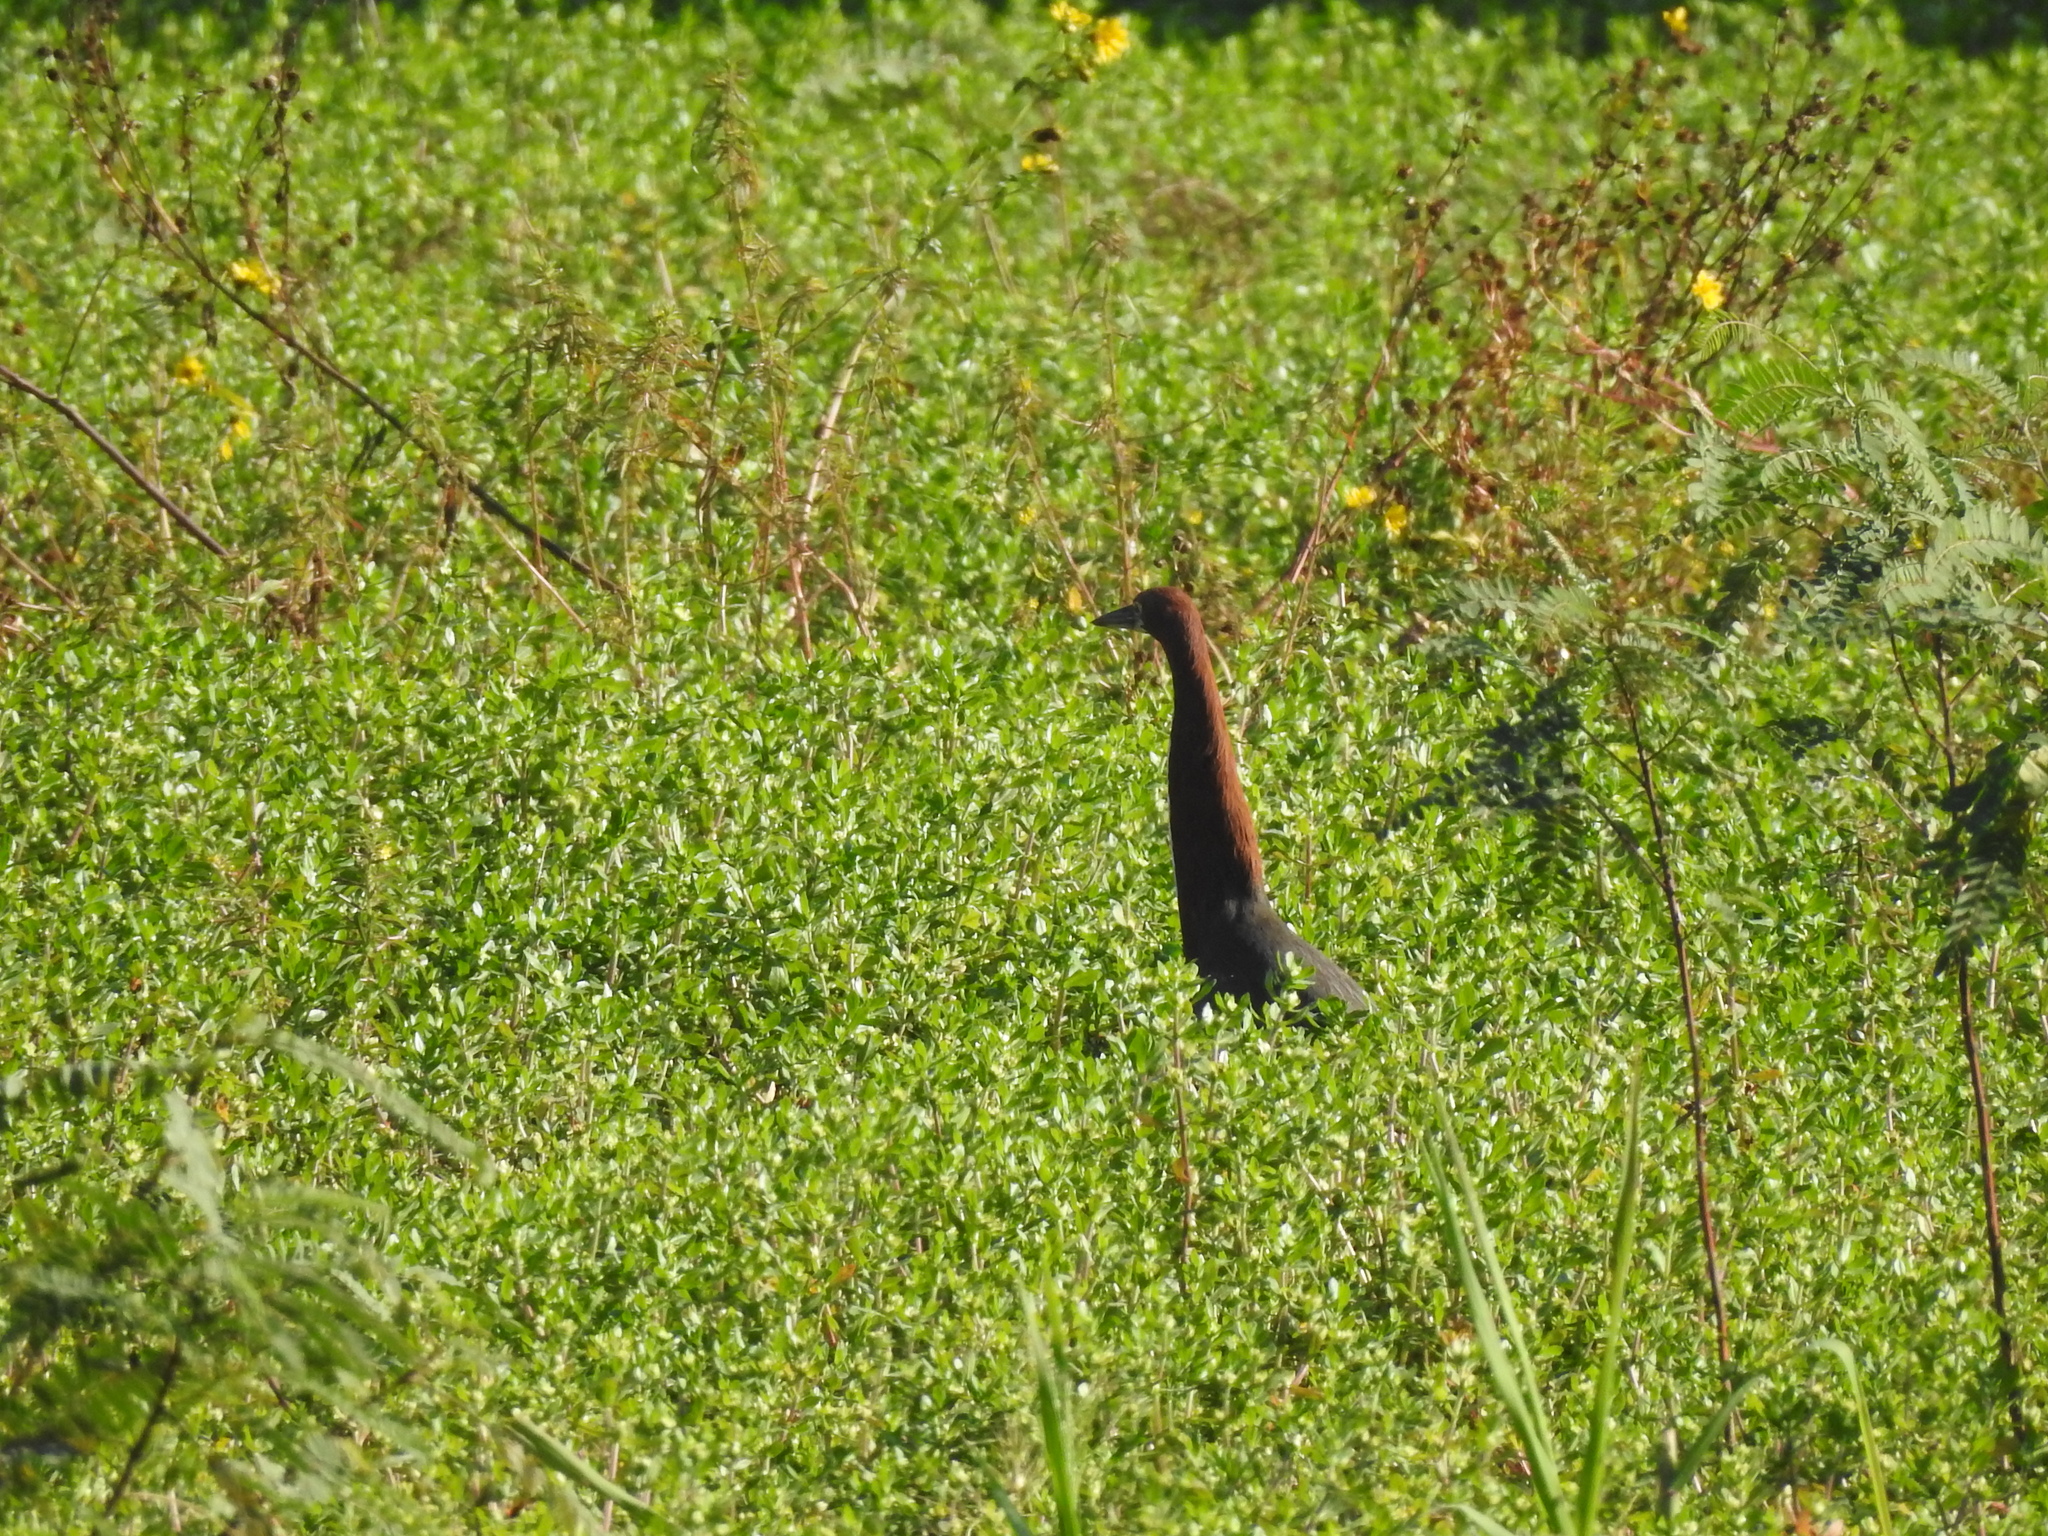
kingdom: Animalia
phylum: Chordata
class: Aves
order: Pelecaniformes
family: Ardeidae
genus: Tigrisoma
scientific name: Tigrisoma lineatum
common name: Rufescent tiger-heron
